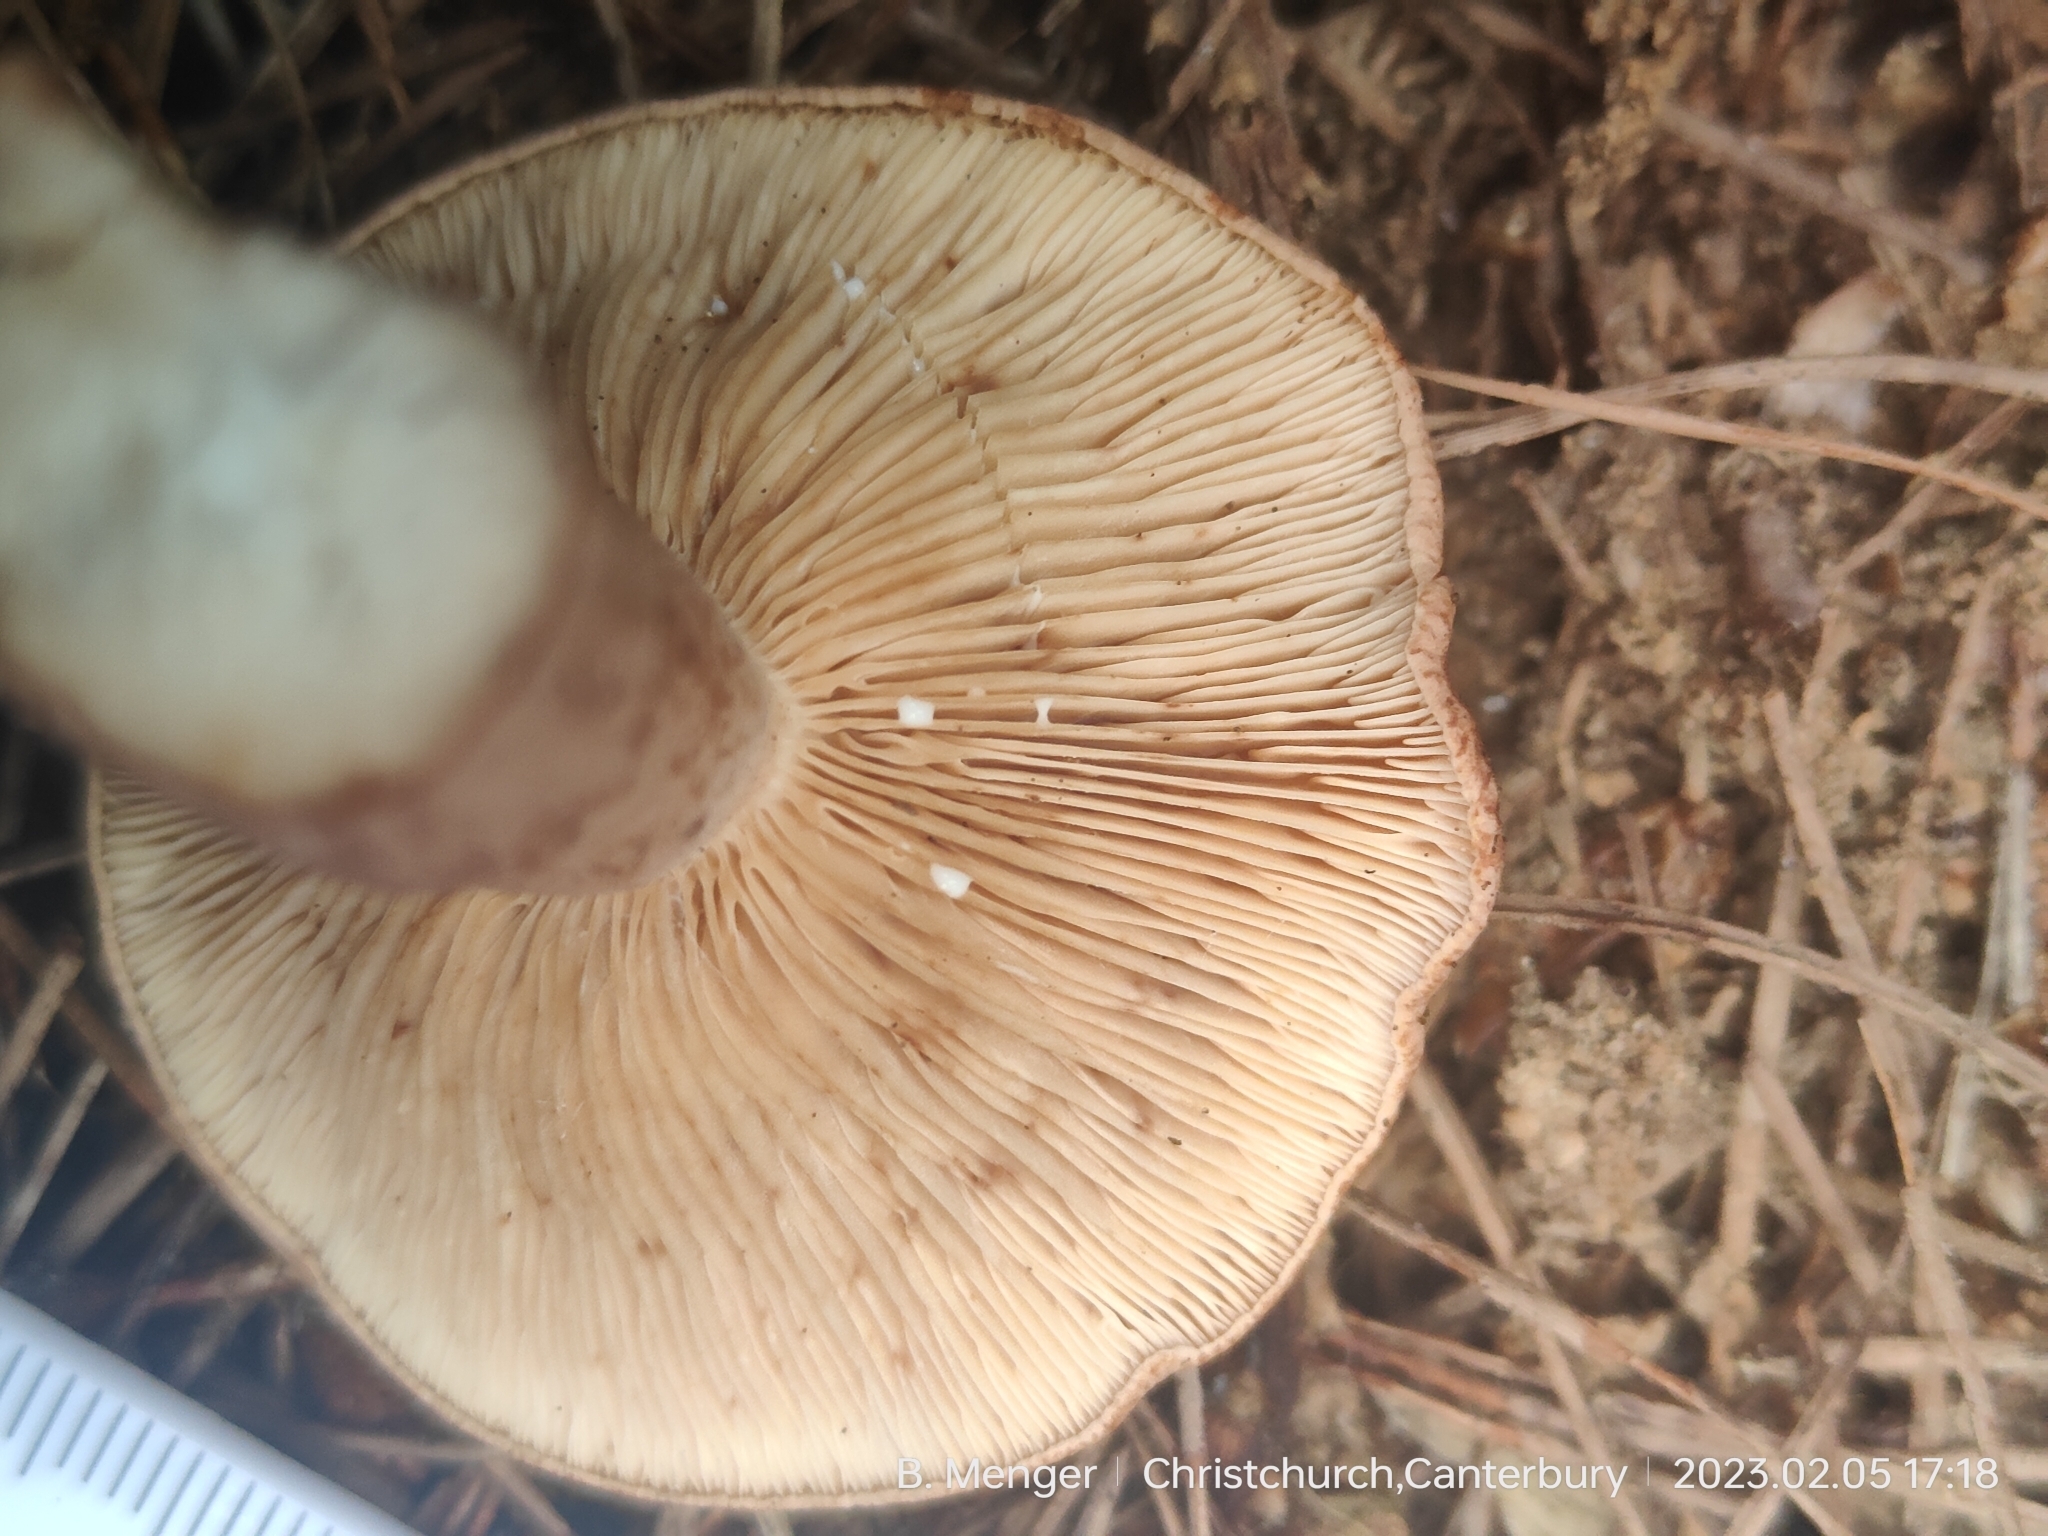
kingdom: Fungi
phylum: Basidiomycota
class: Agaricomycetes
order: Russulales
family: Russulaceae
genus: Lactarius
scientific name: Lactarius rufus
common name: Rufous milk-cap
